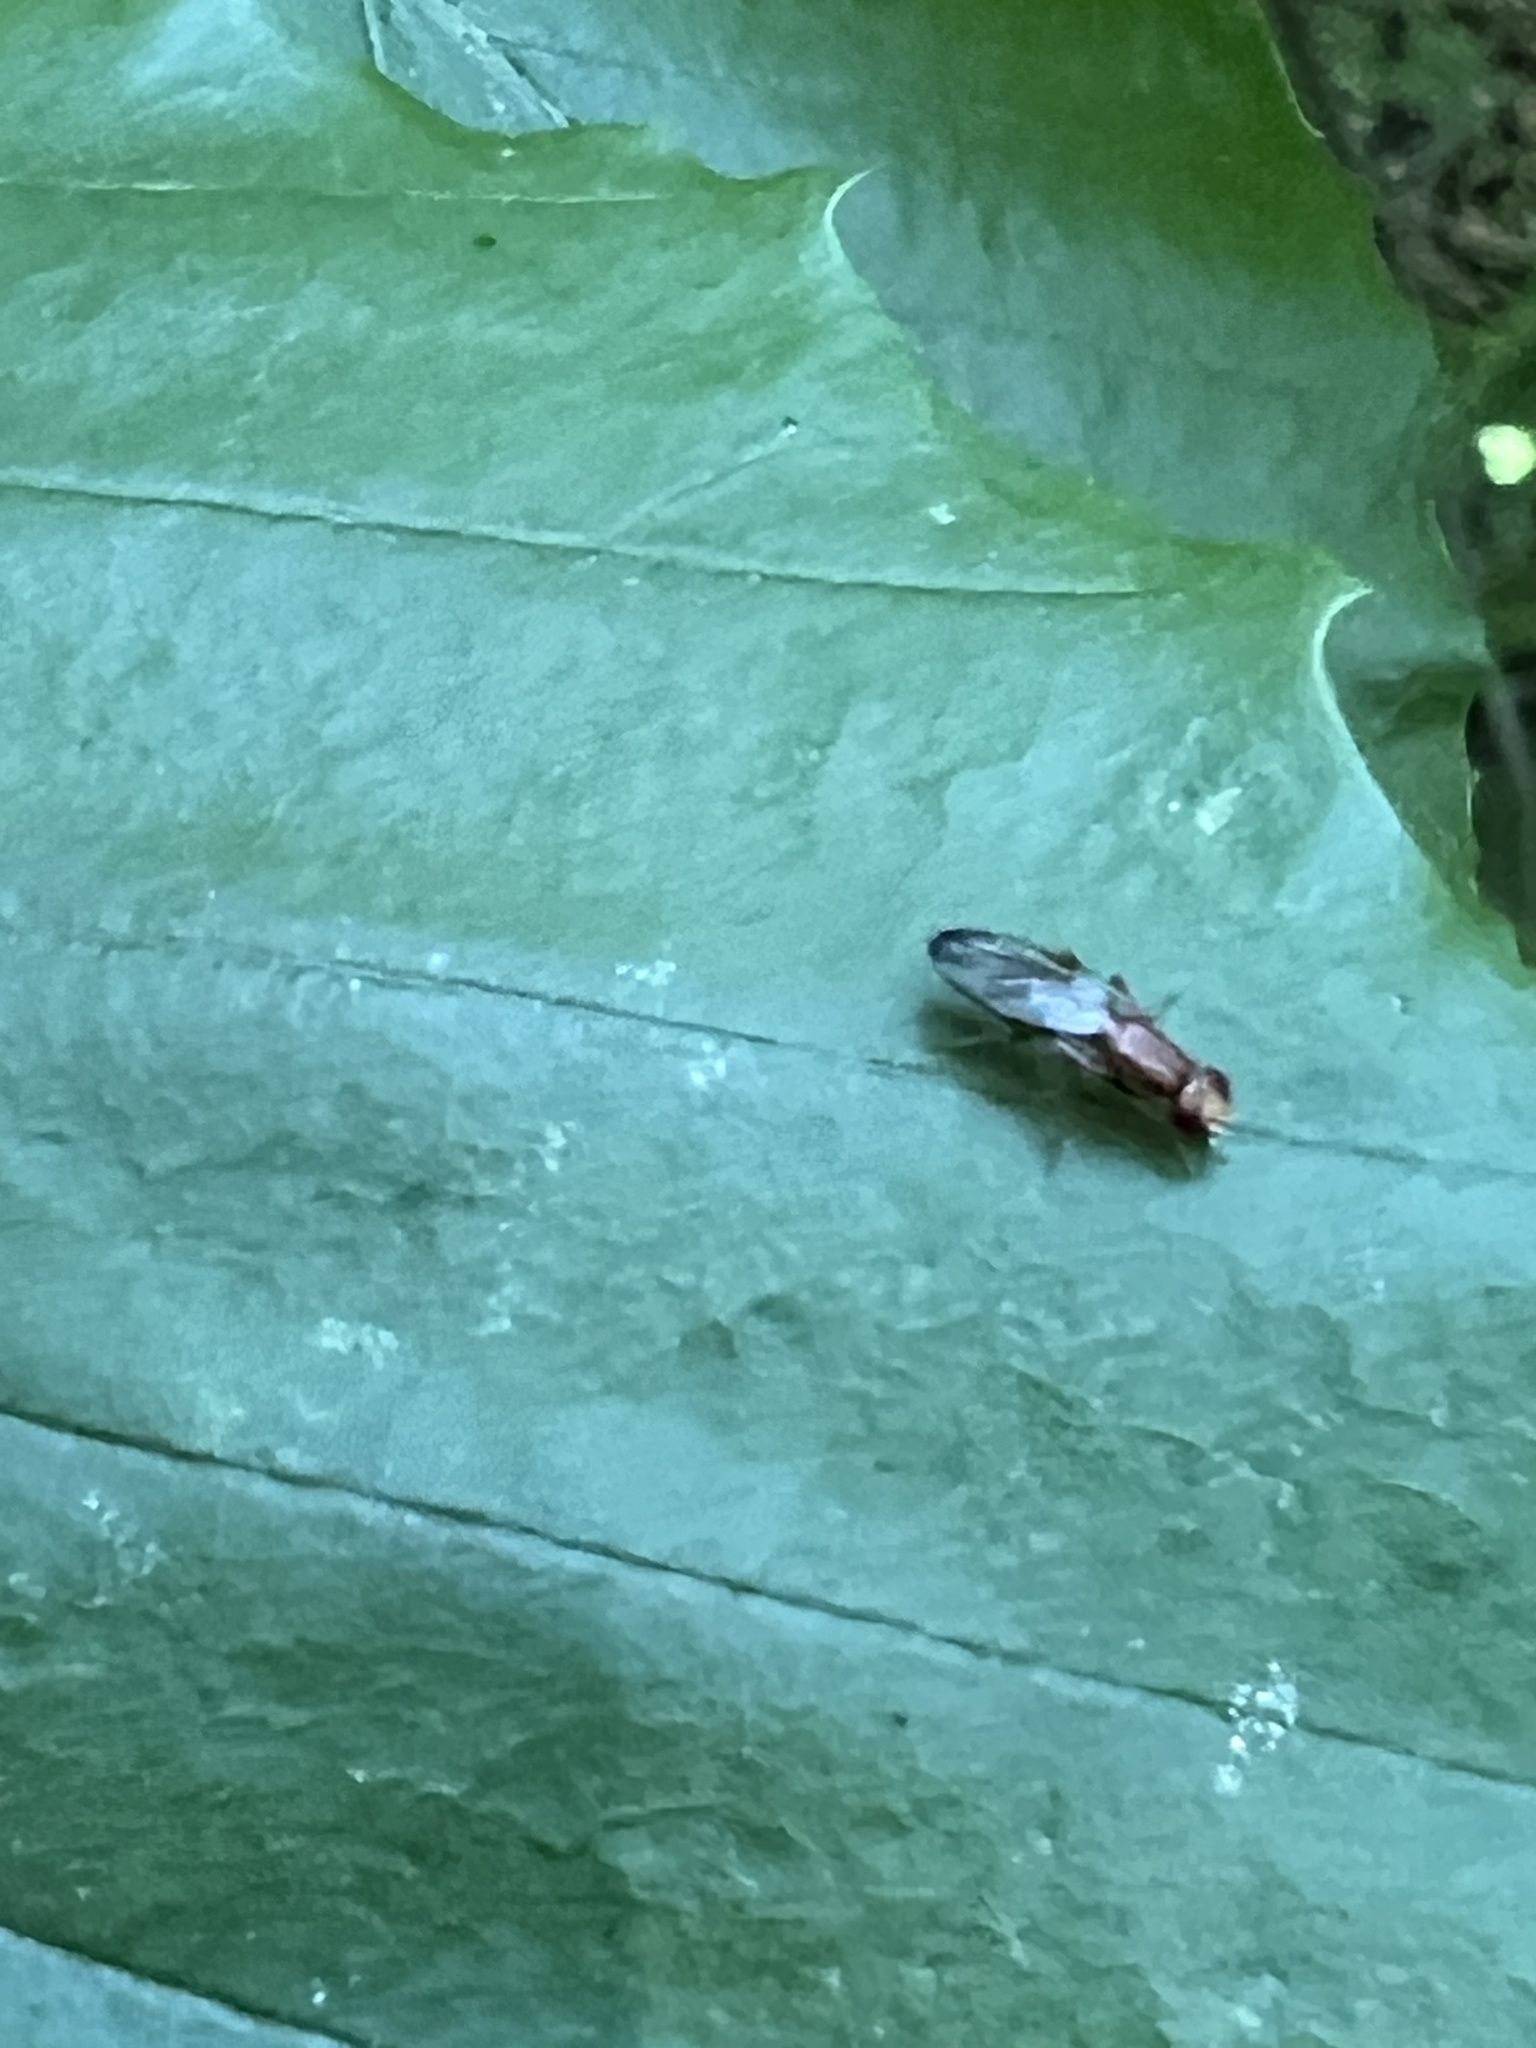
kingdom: Animalia
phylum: Arthropoda
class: Insecta
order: Diptera
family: Psilidae
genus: Chyliza
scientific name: Chyliza apicalis
